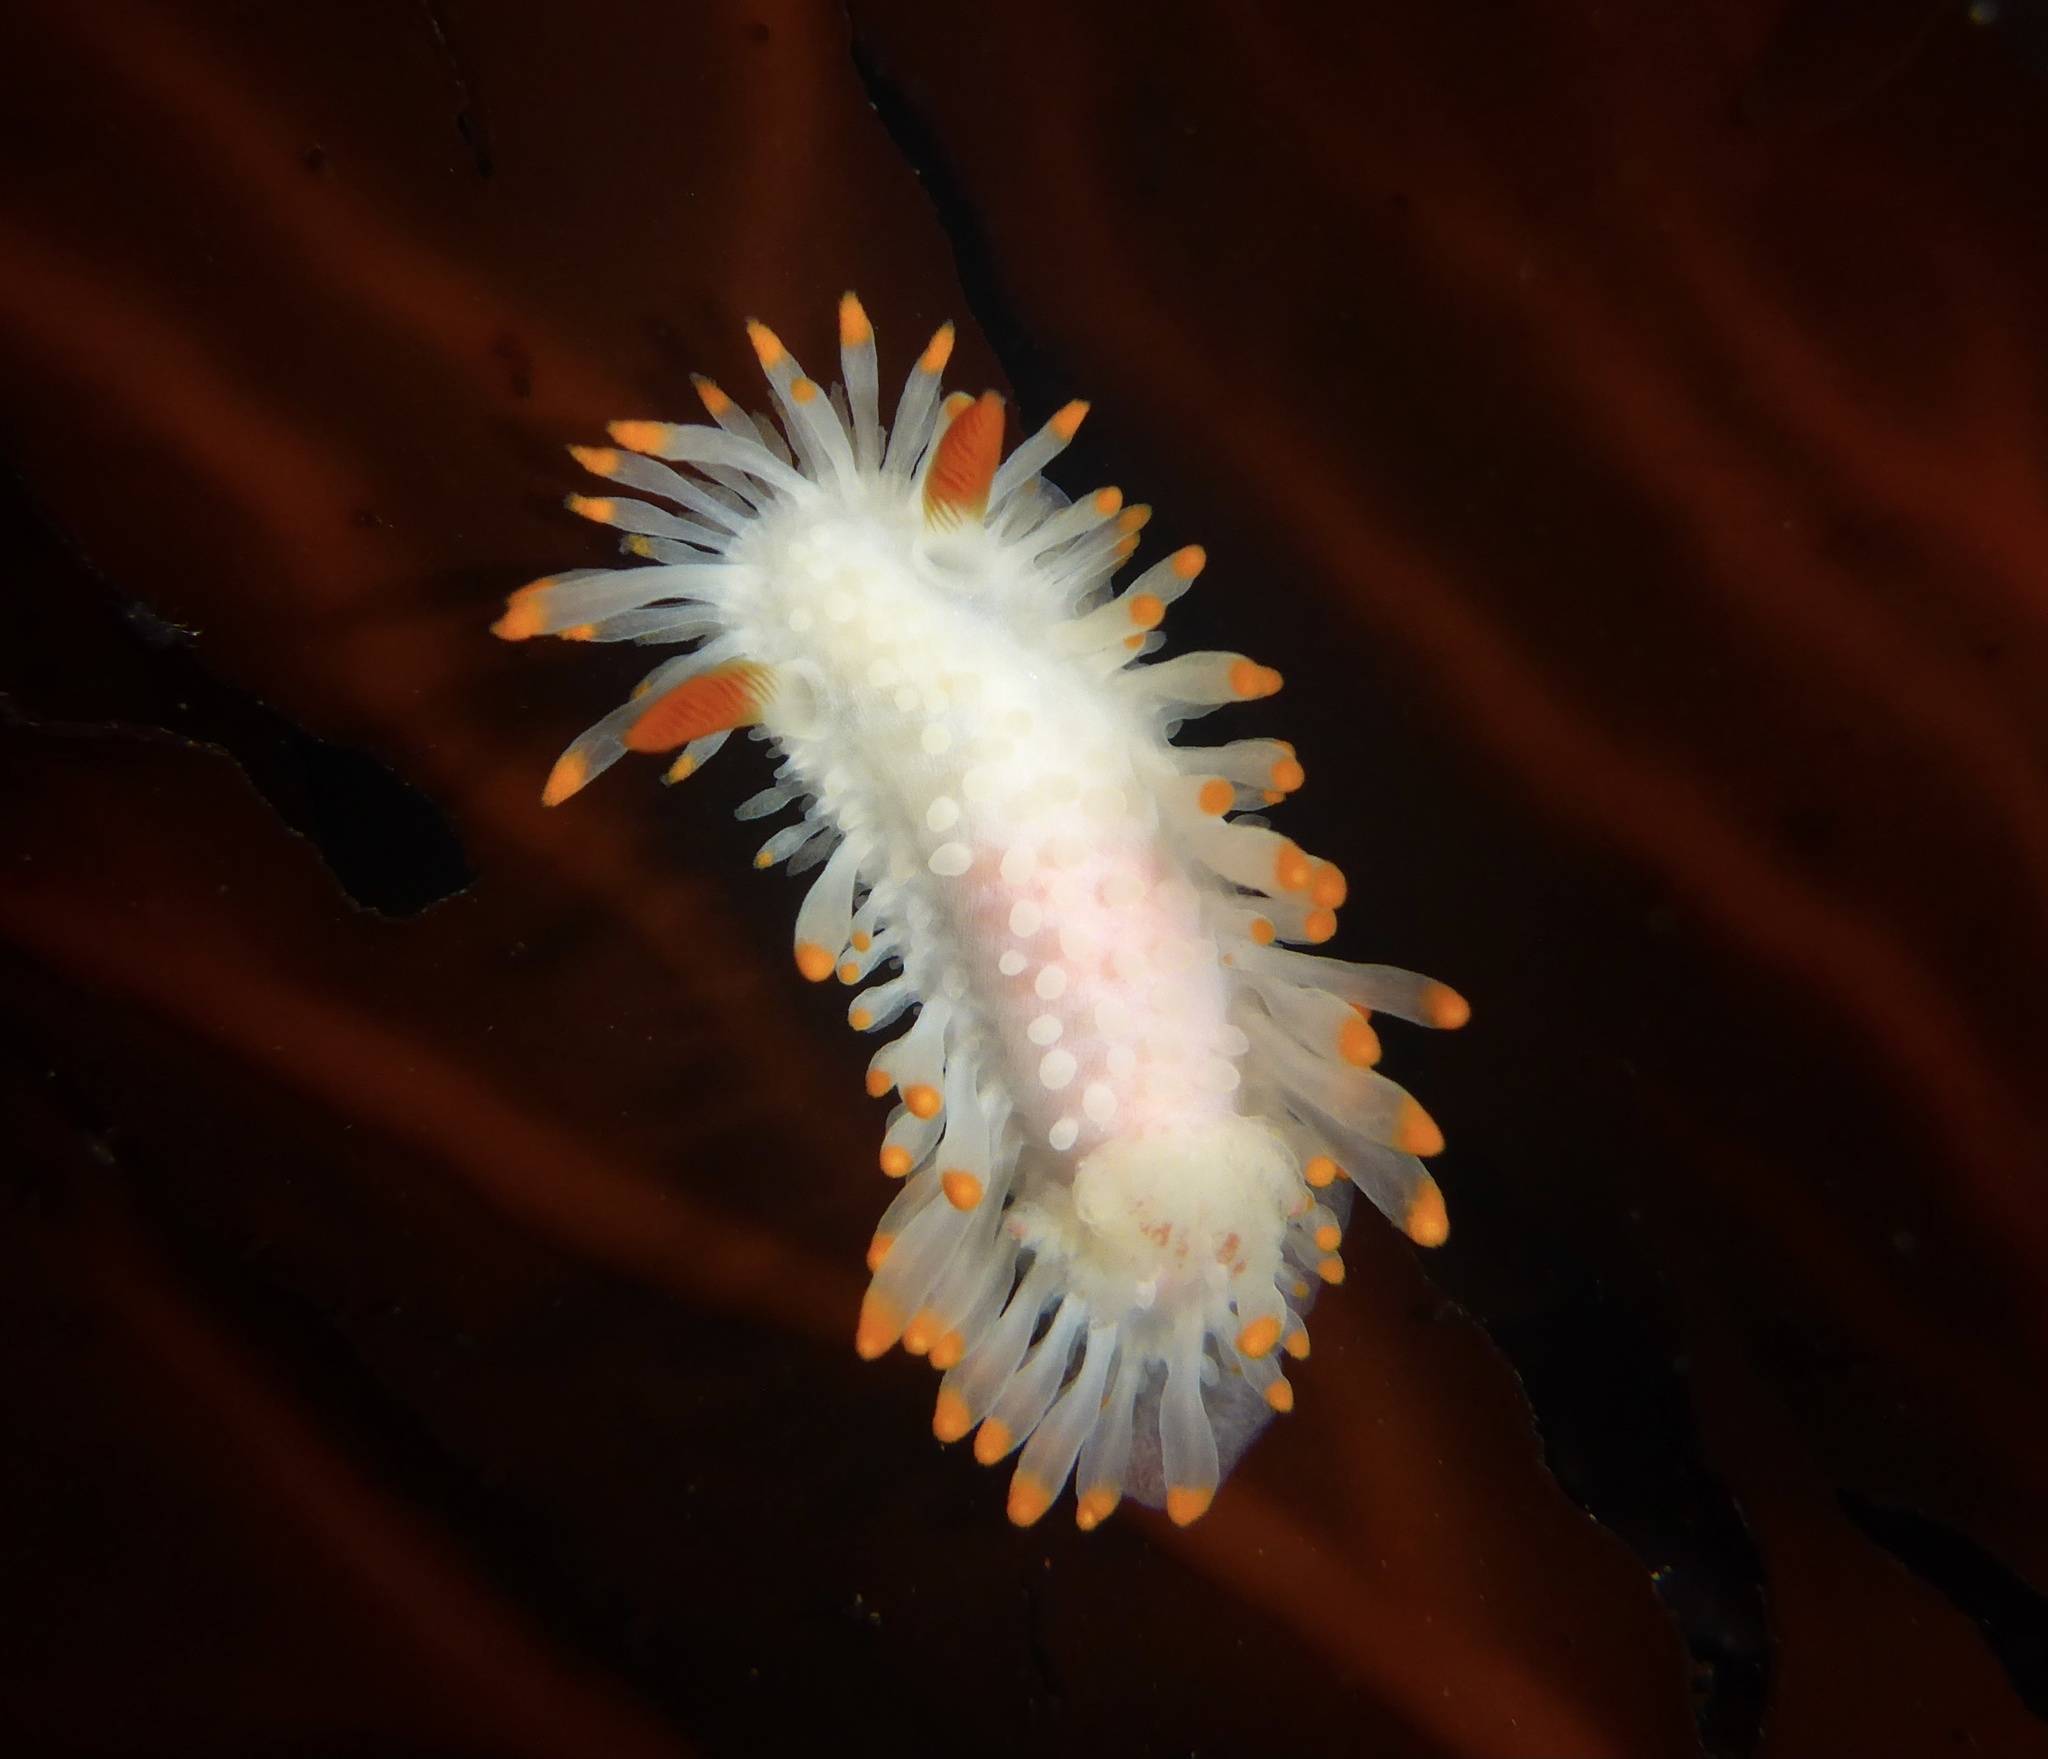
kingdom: Animalia
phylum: Mollusca
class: Gastropoda
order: Nudibranchia
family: Polyceridae
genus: Limacia
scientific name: Limacia cockerelli
